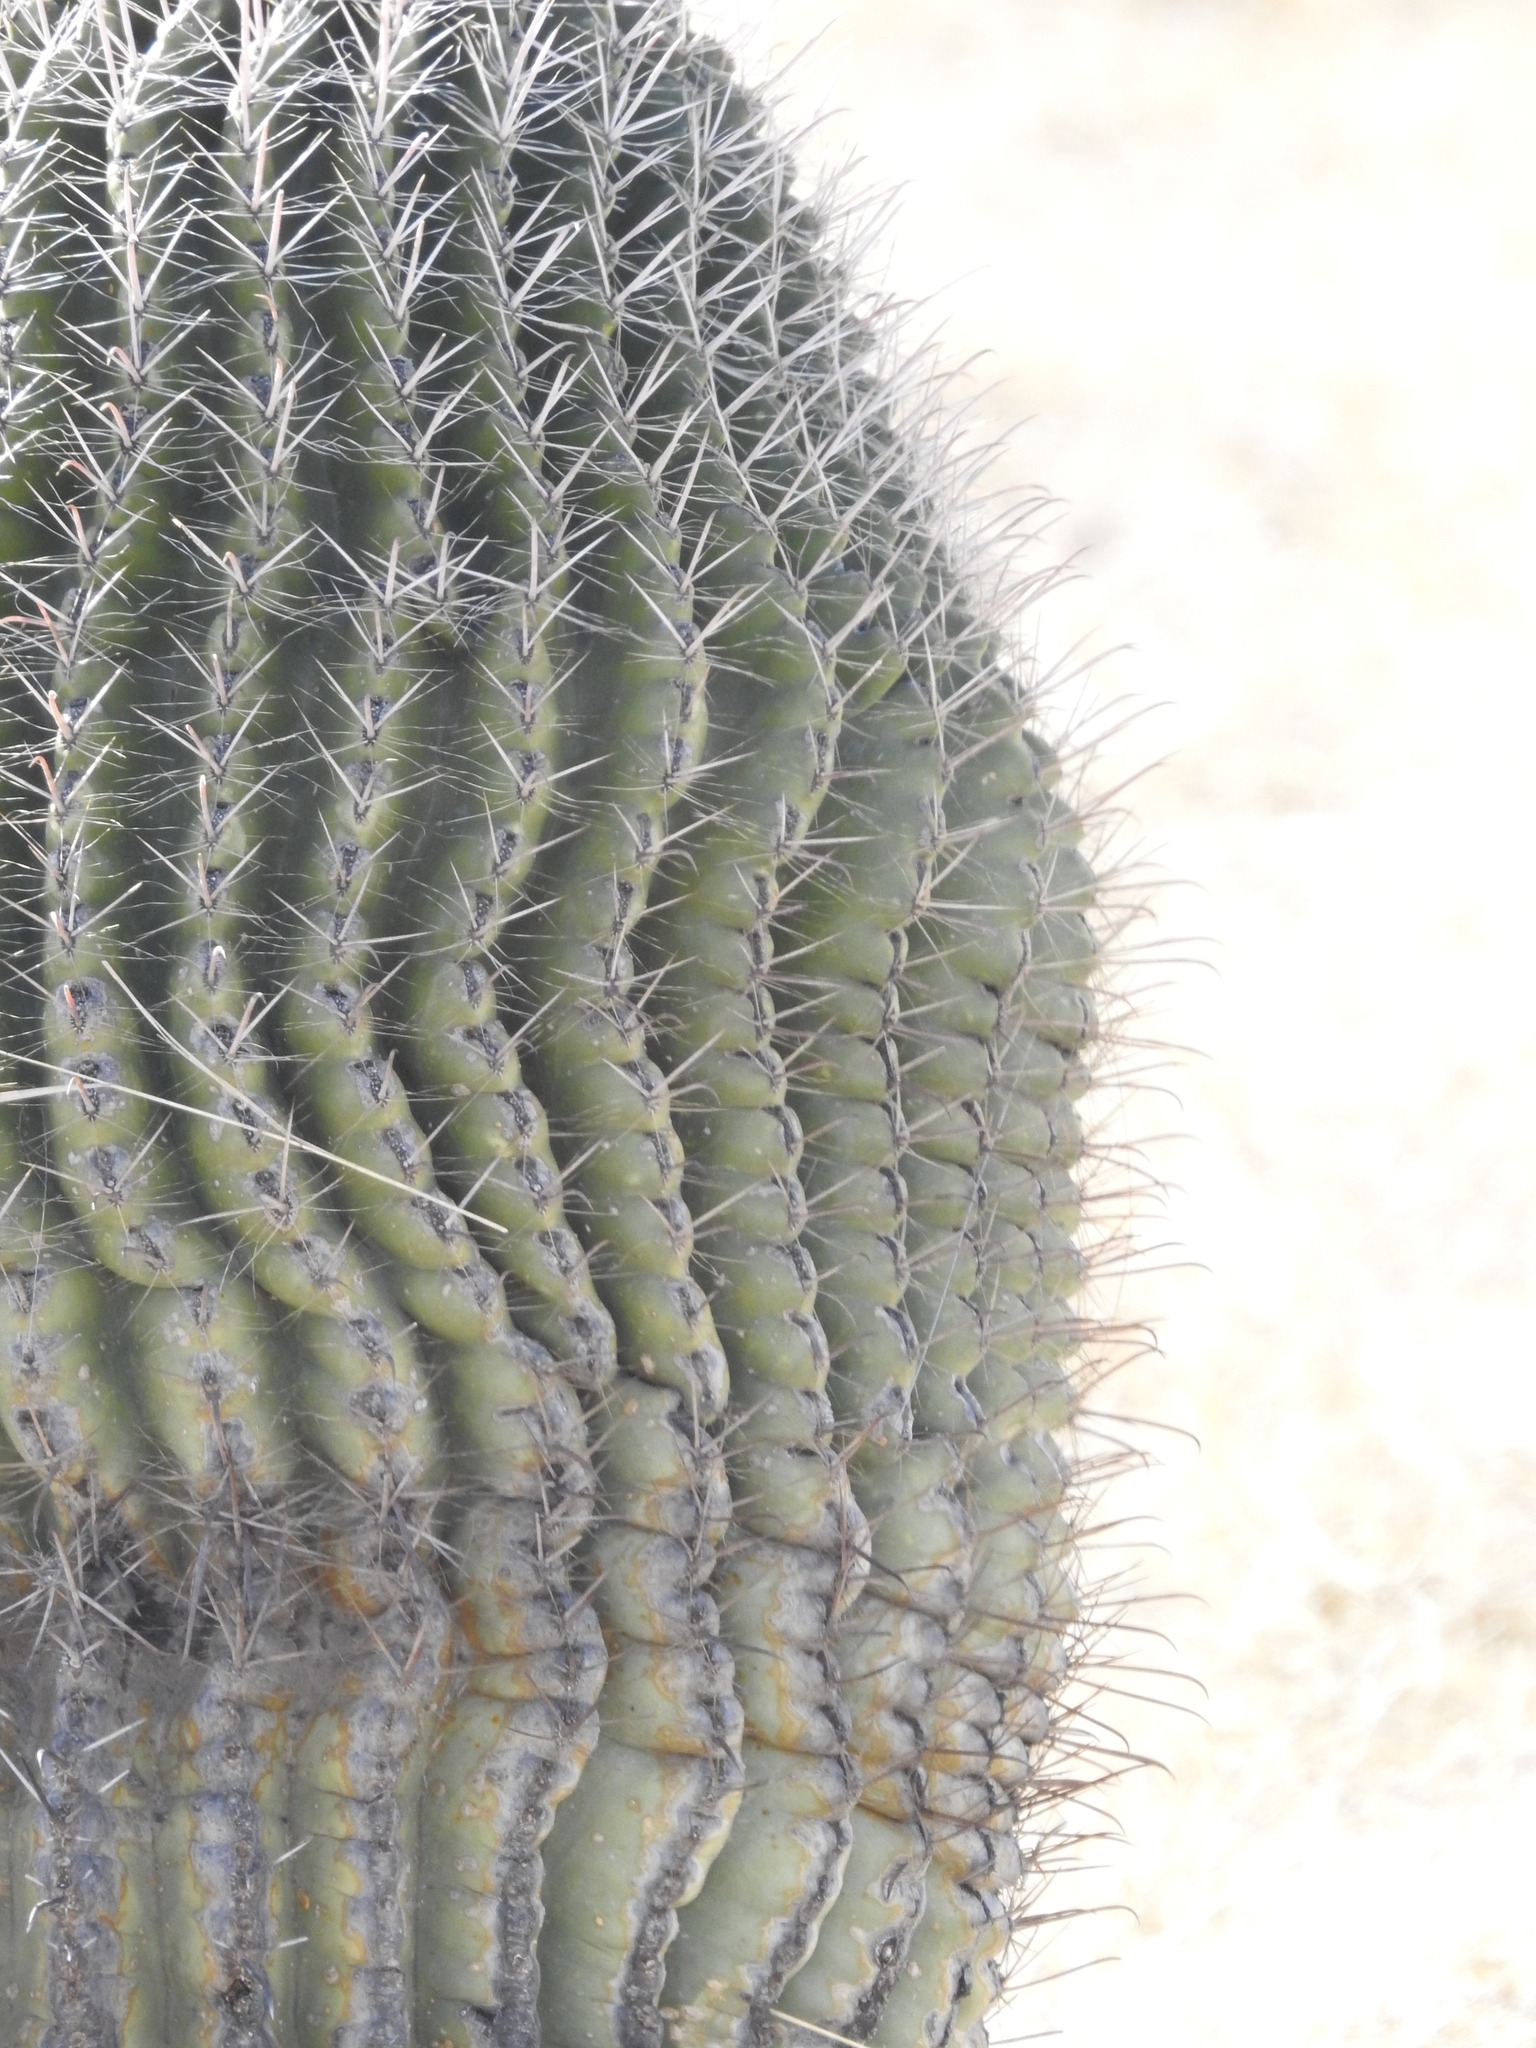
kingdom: Plantae
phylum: Tracheophyta
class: Magnoliopsida
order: Caryophyllales
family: Cactaceae
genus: Ferocactus
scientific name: Ferocactus wislizeni
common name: Candy barrel cactus
